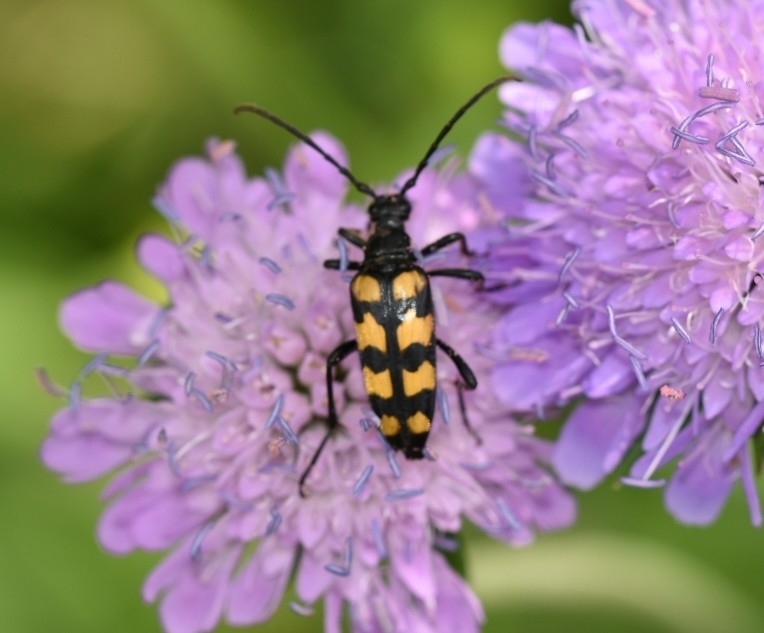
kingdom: Animalia
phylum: Arthropoda
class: Insecta
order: Coleoptera
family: Cerambycidae
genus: Leptura
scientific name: Leptura quadrifasciata
